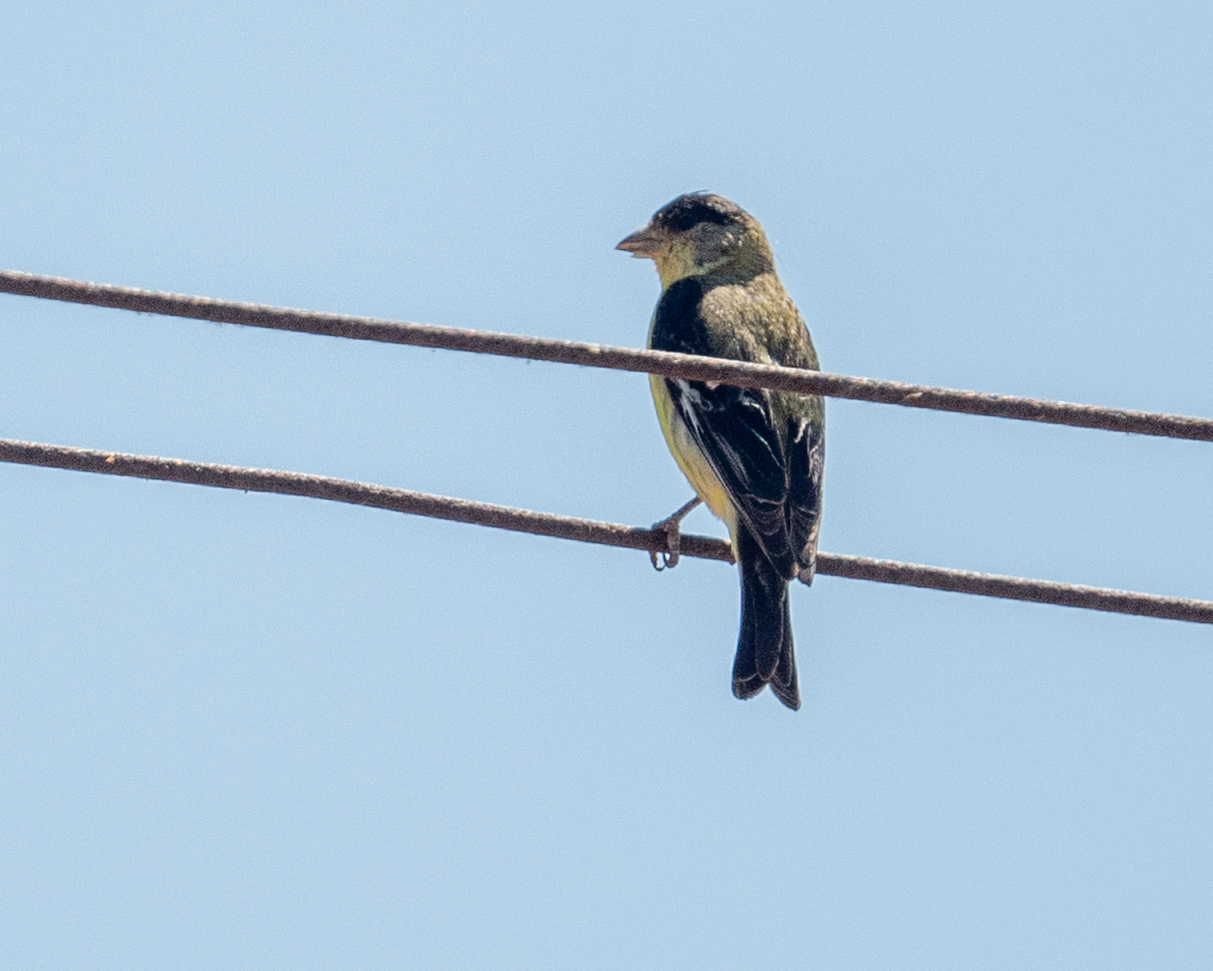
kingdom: Animalia
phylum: Chordata
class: Aves
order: Passeriformes
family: Fringillidae
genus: Spinus
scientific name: Spinus psaltria
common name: Lesser goldfinch
